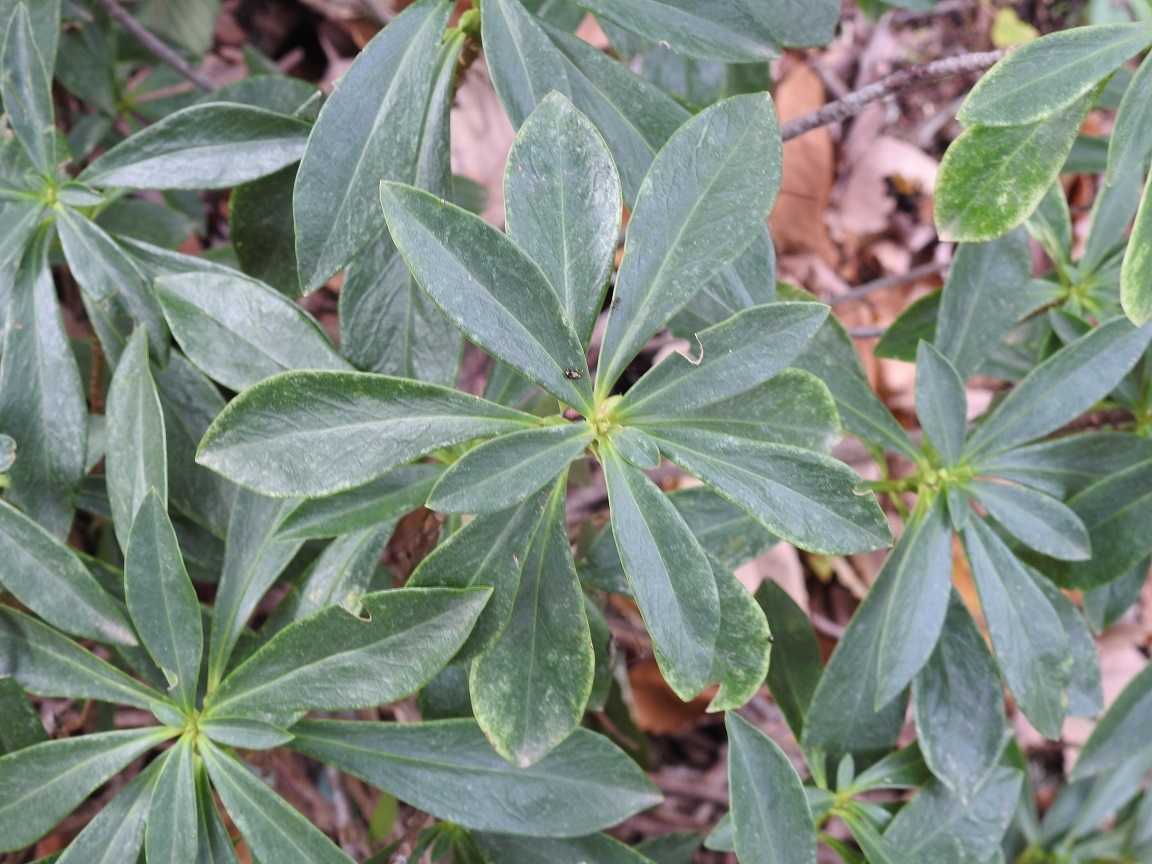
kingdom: Plantae
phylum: Tracheophyta
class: Magnoliopsida
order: Malvales
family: Thymelaeaceae
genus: Daphne
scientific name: Daphne laureola
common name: Spurge-laurel
